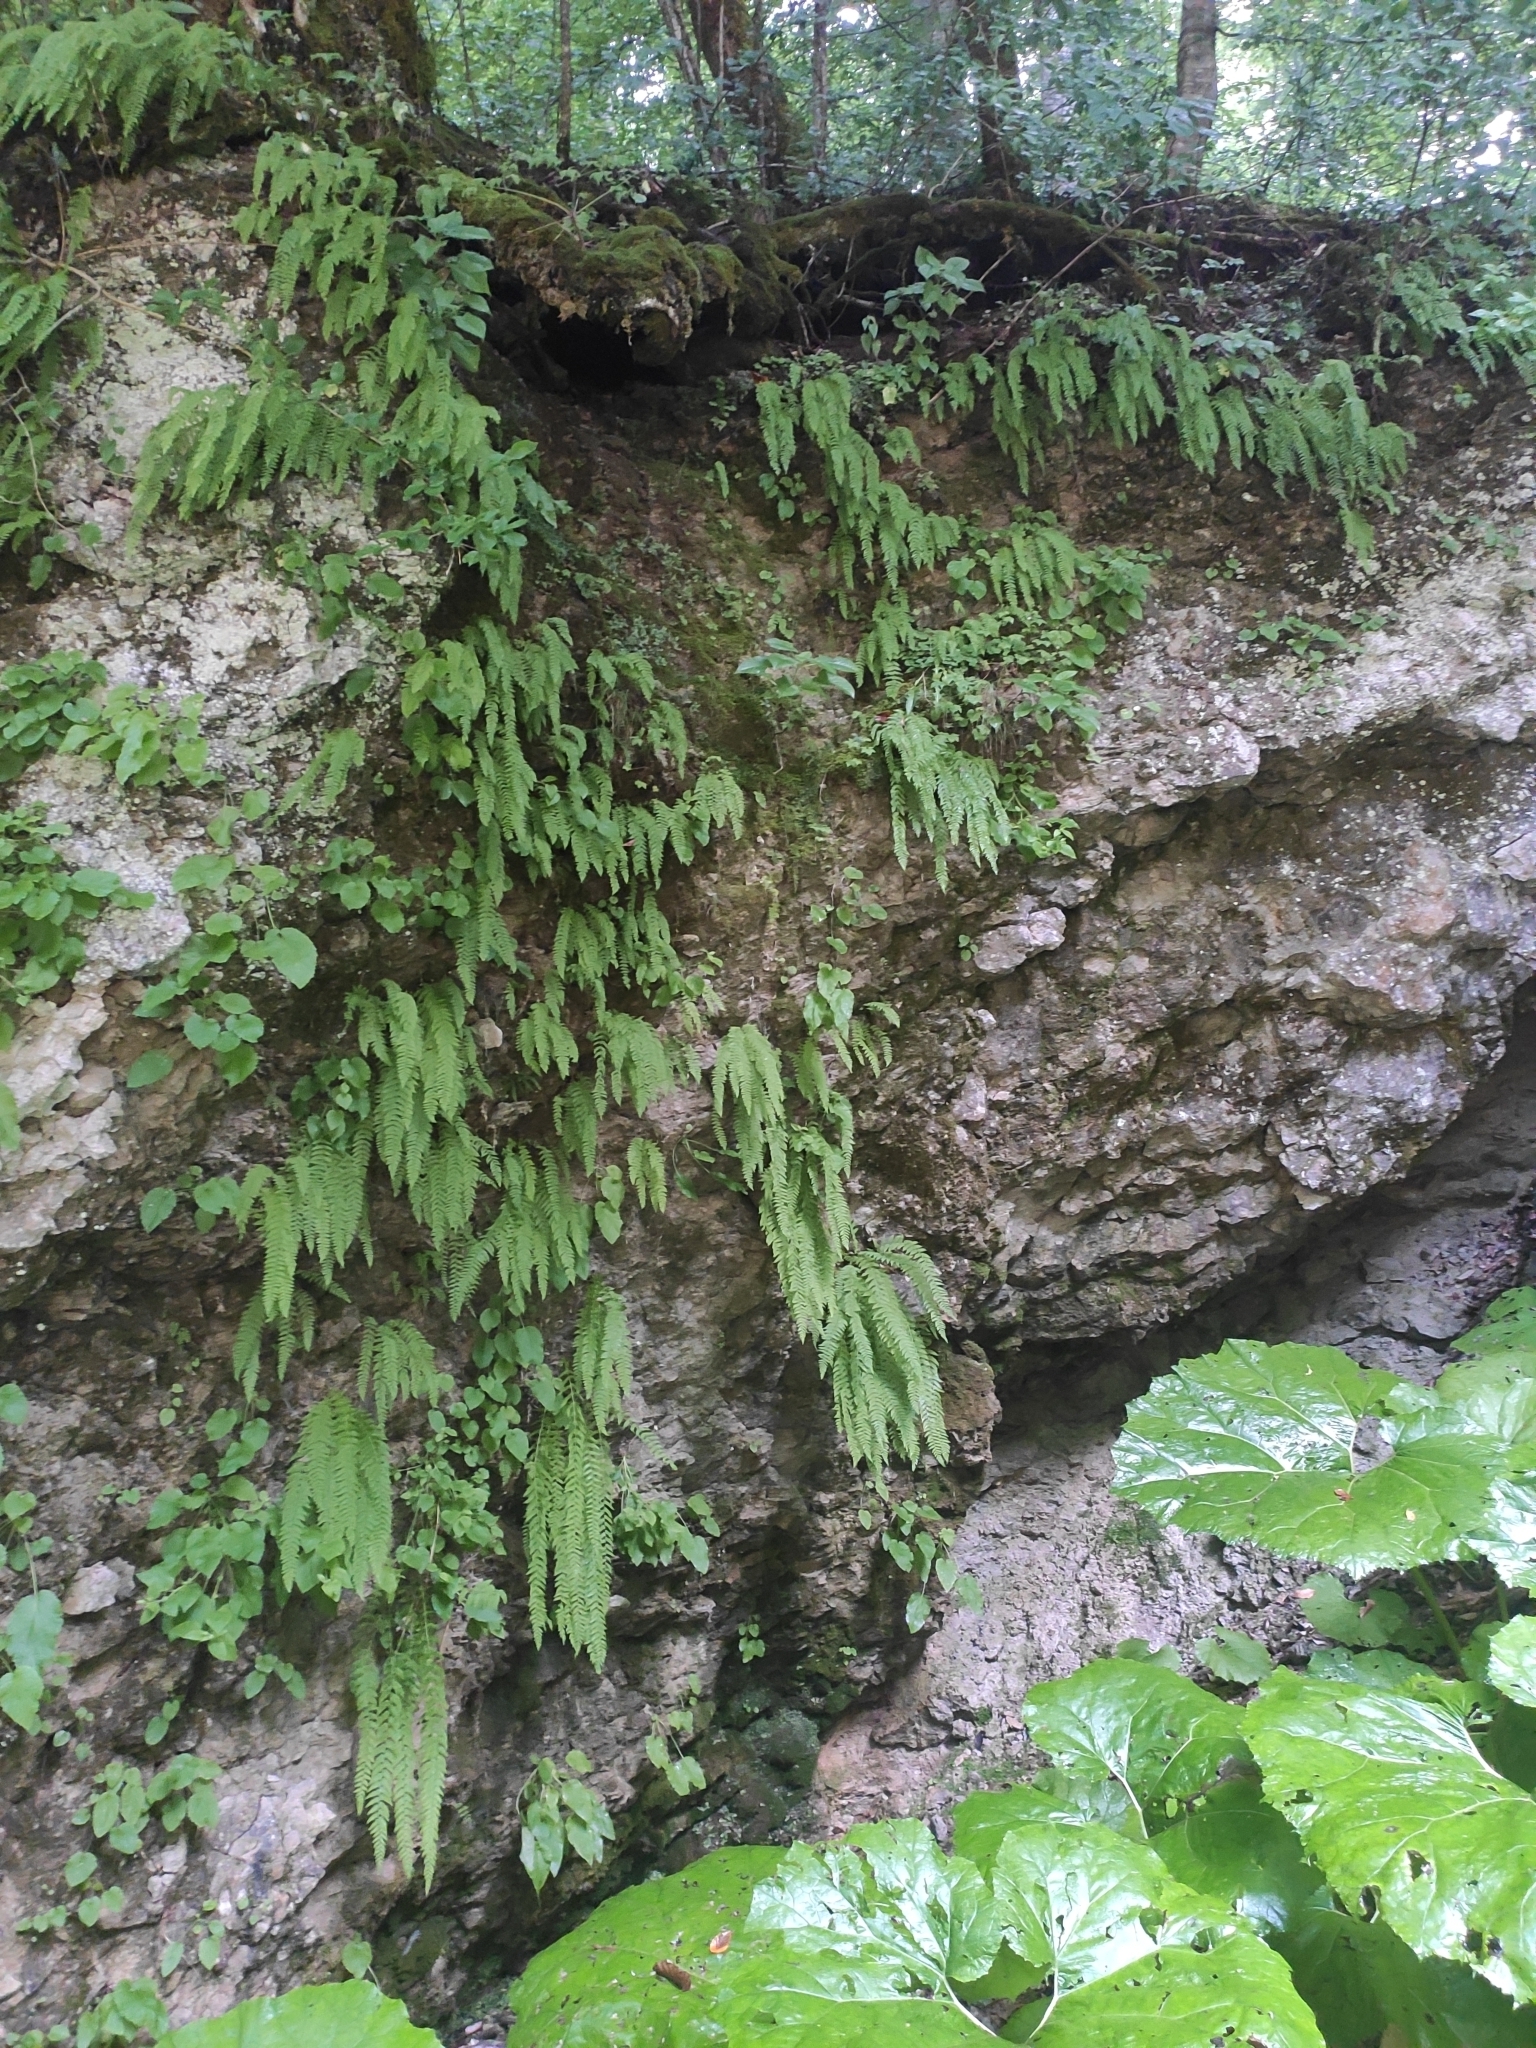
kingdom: Plantae
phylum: Tracheophyta
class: Polypodiopsida
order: Polypodiales
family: Woodsiaceae
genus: Physematium
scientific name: Physematium fragile
